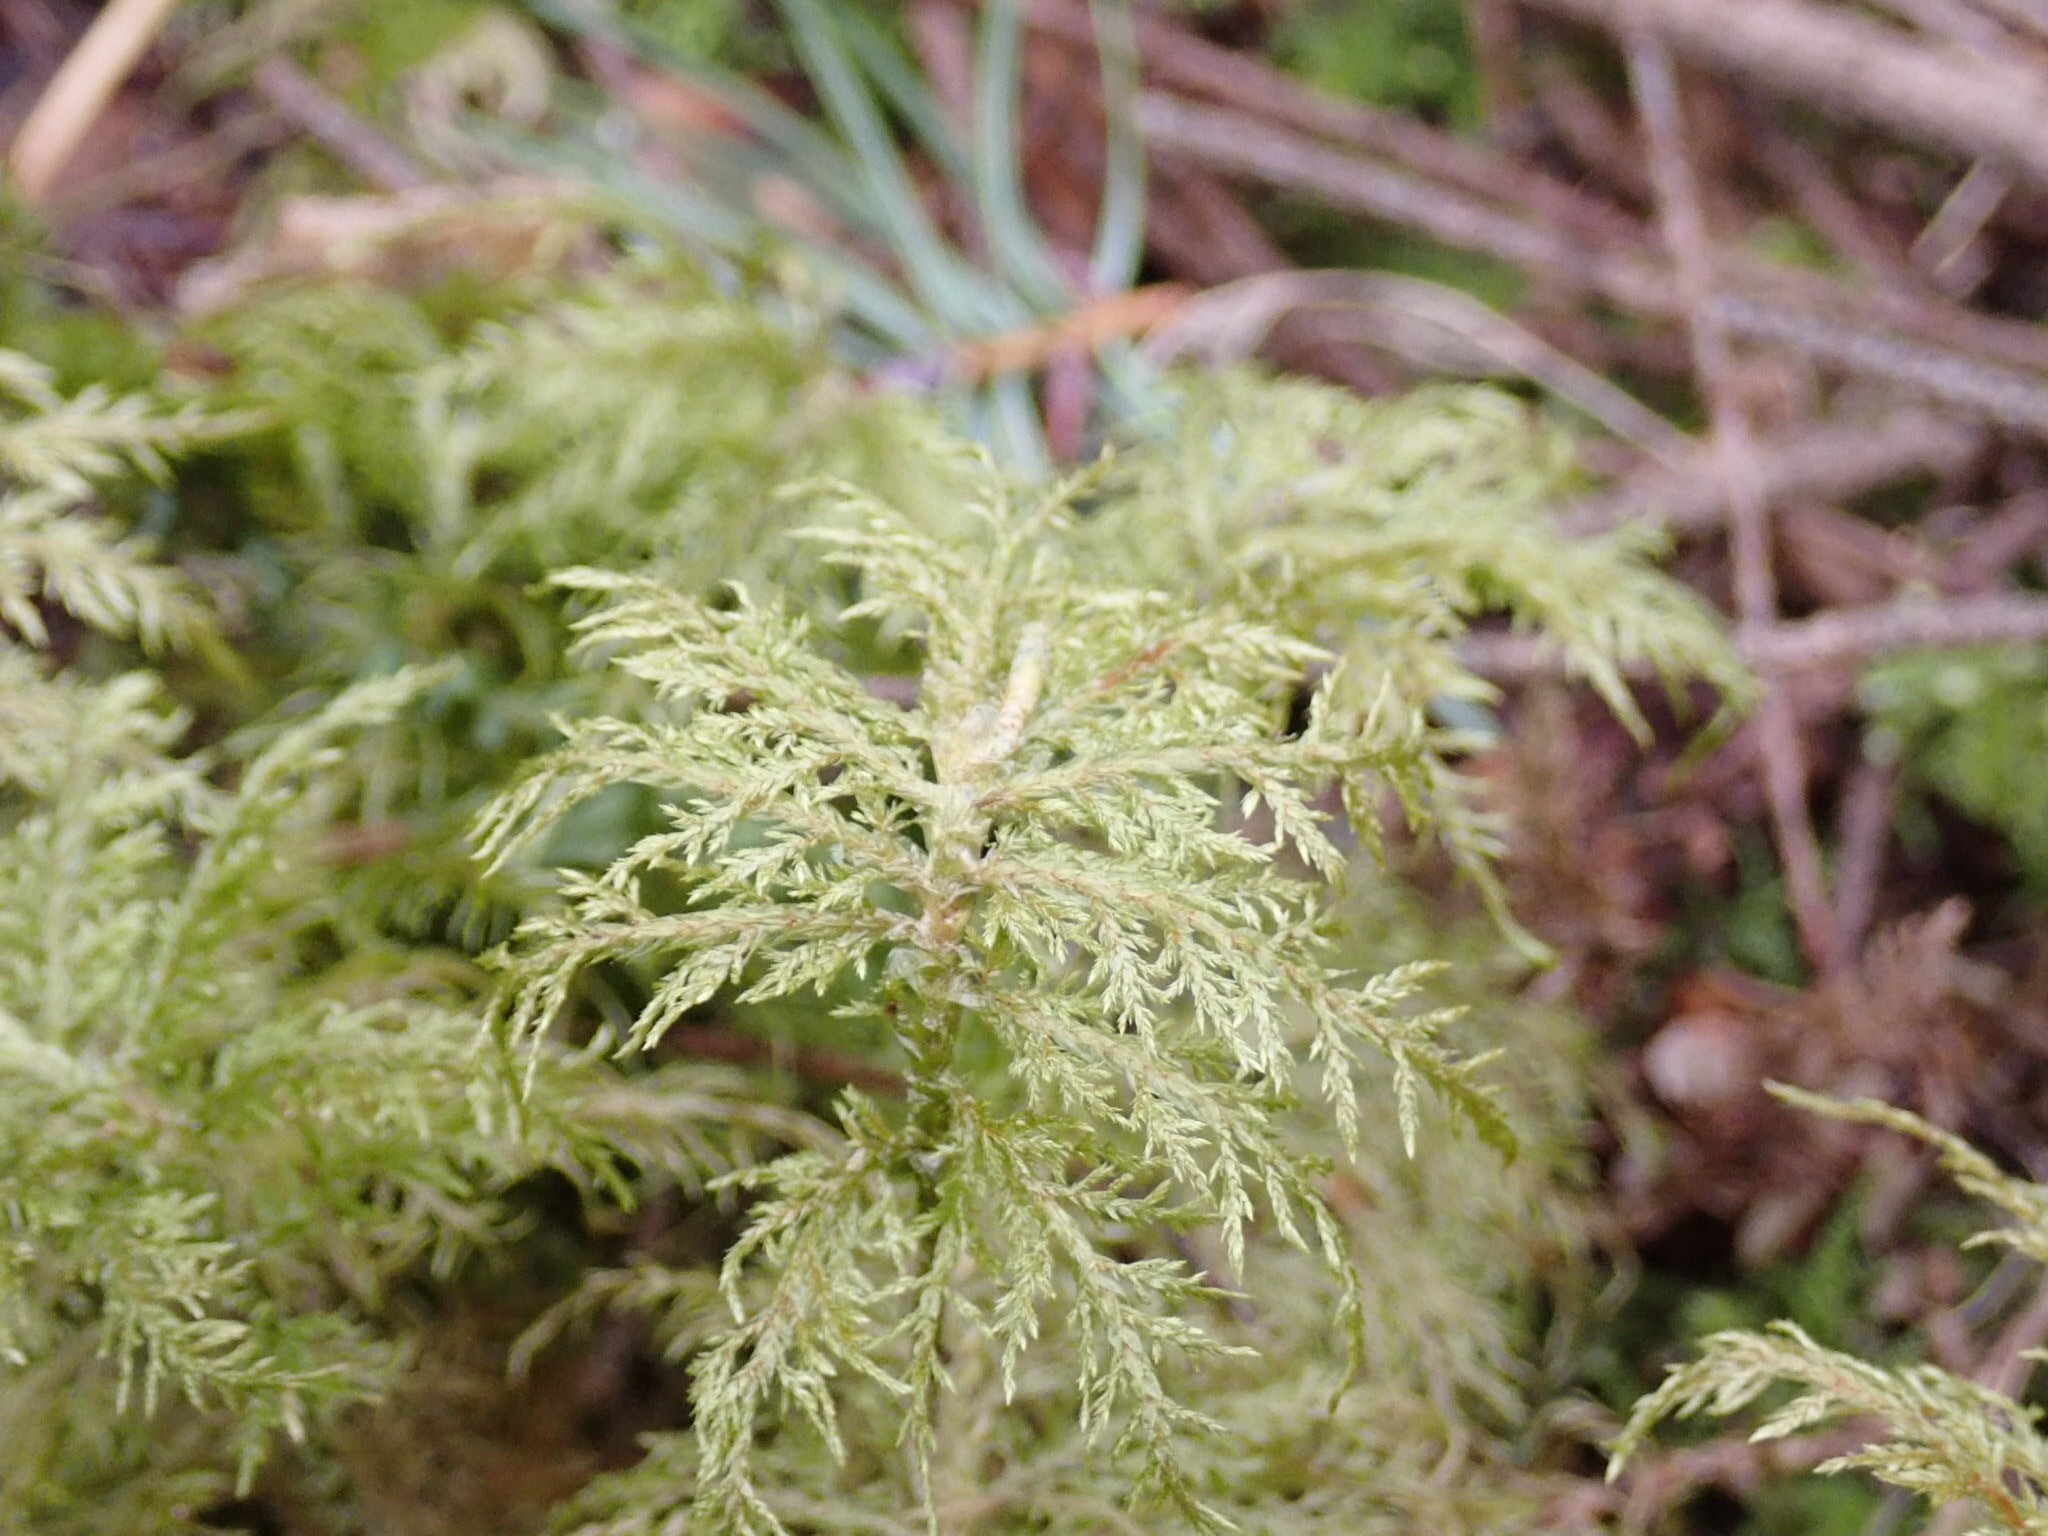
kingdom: Plantae
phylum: Bryophyta
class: Bryopsida
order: Hypnales
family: Hylocomiaceae
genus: Hylocomium
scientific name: Hylocomium splendens
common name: Stairstep moss
